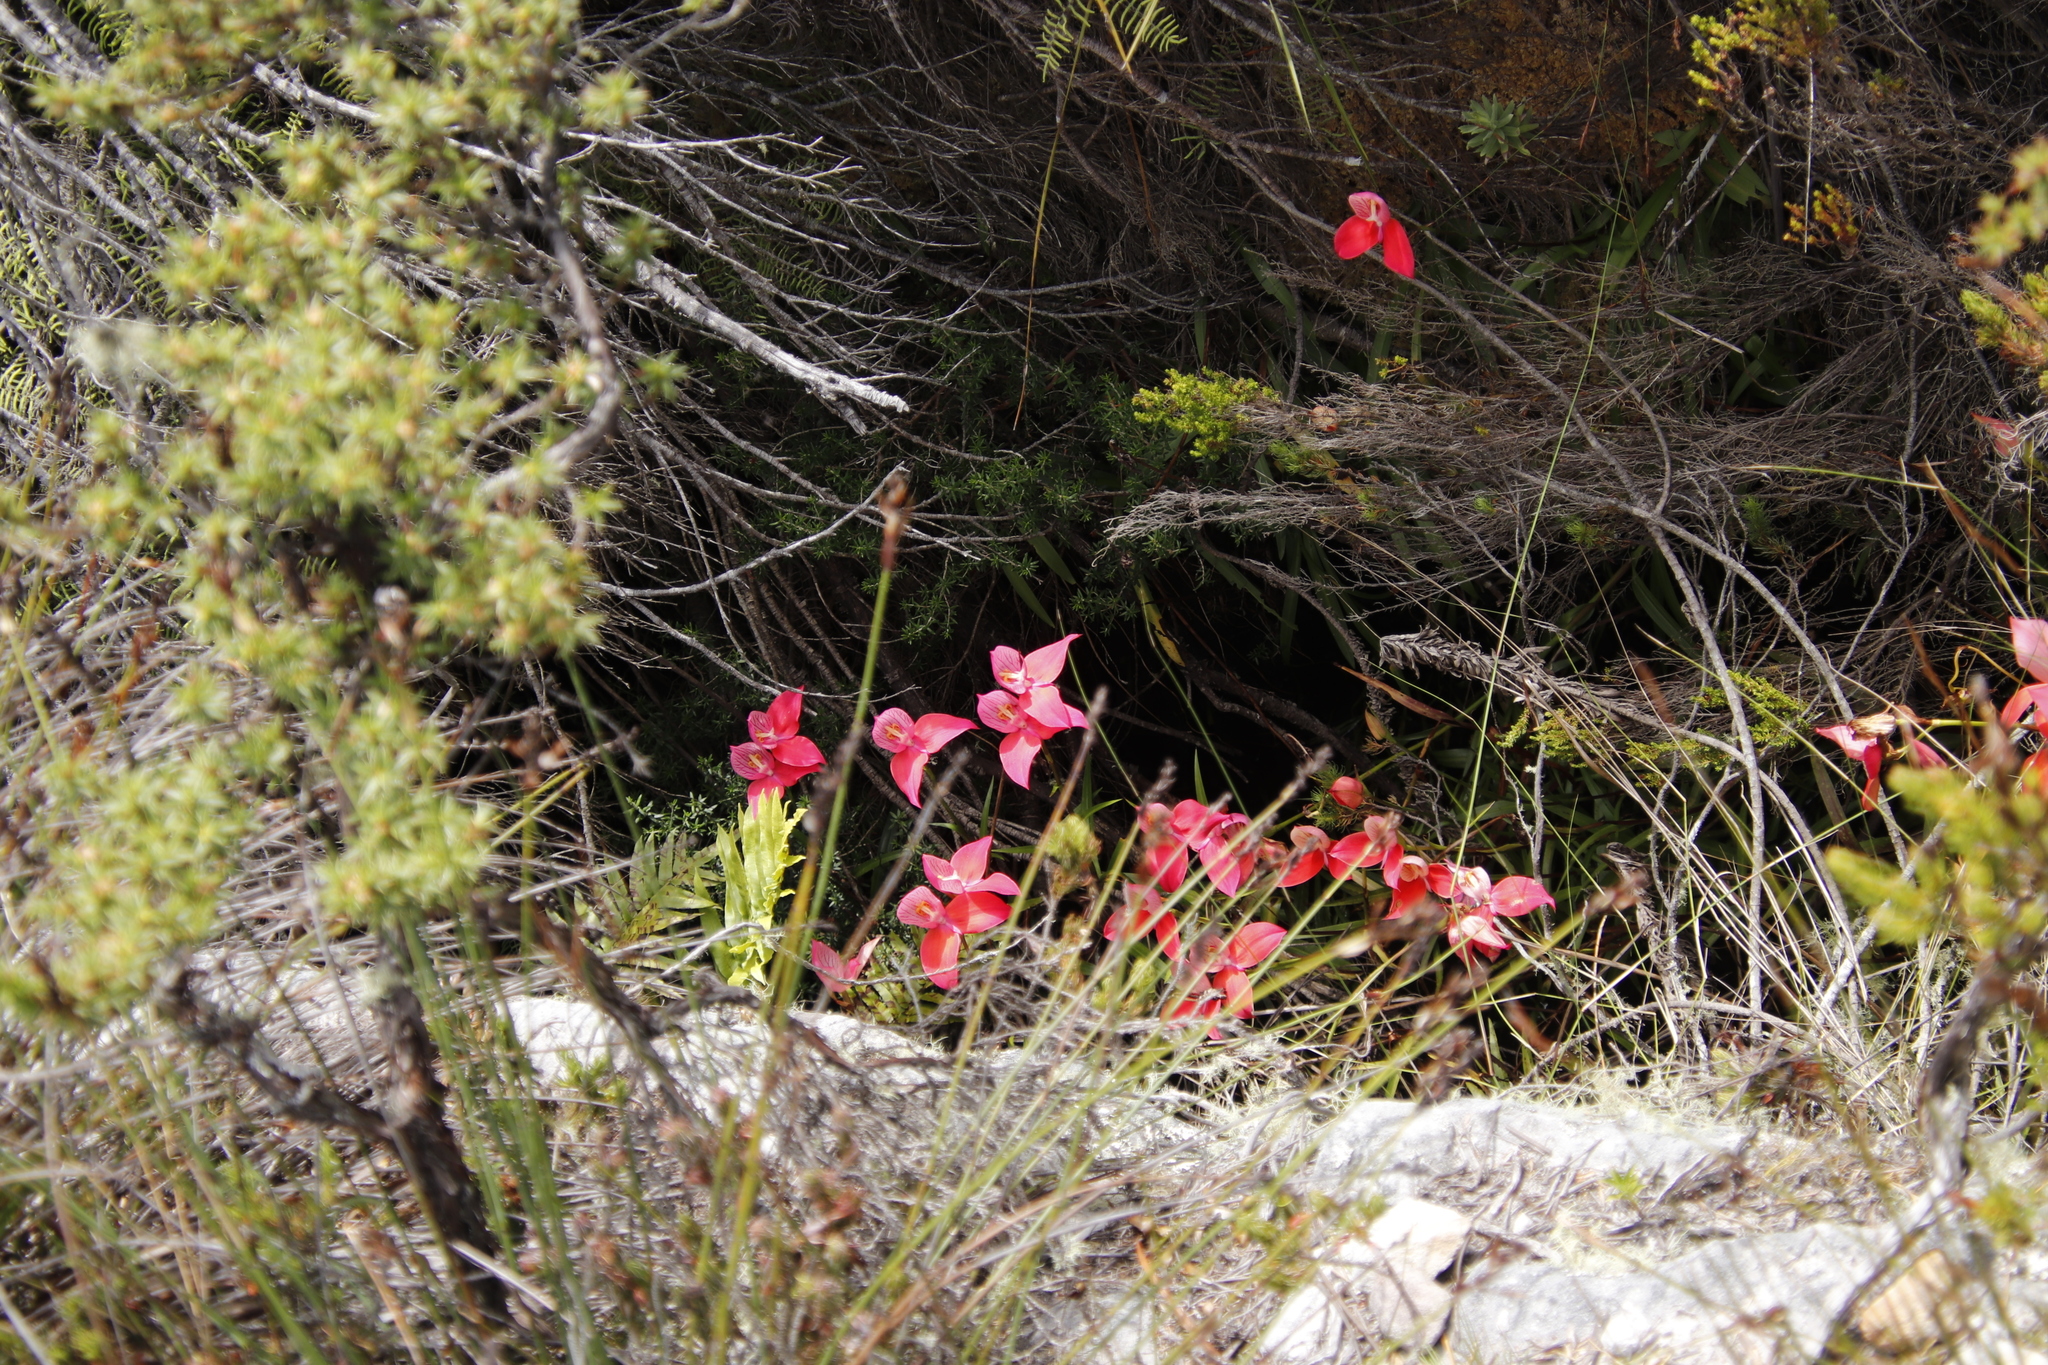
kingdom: Plantae
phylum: Tracheophyta
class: Liliopsida
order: Asparagales
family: Orchidaceae
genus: Disa
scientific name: Disa uniflora
